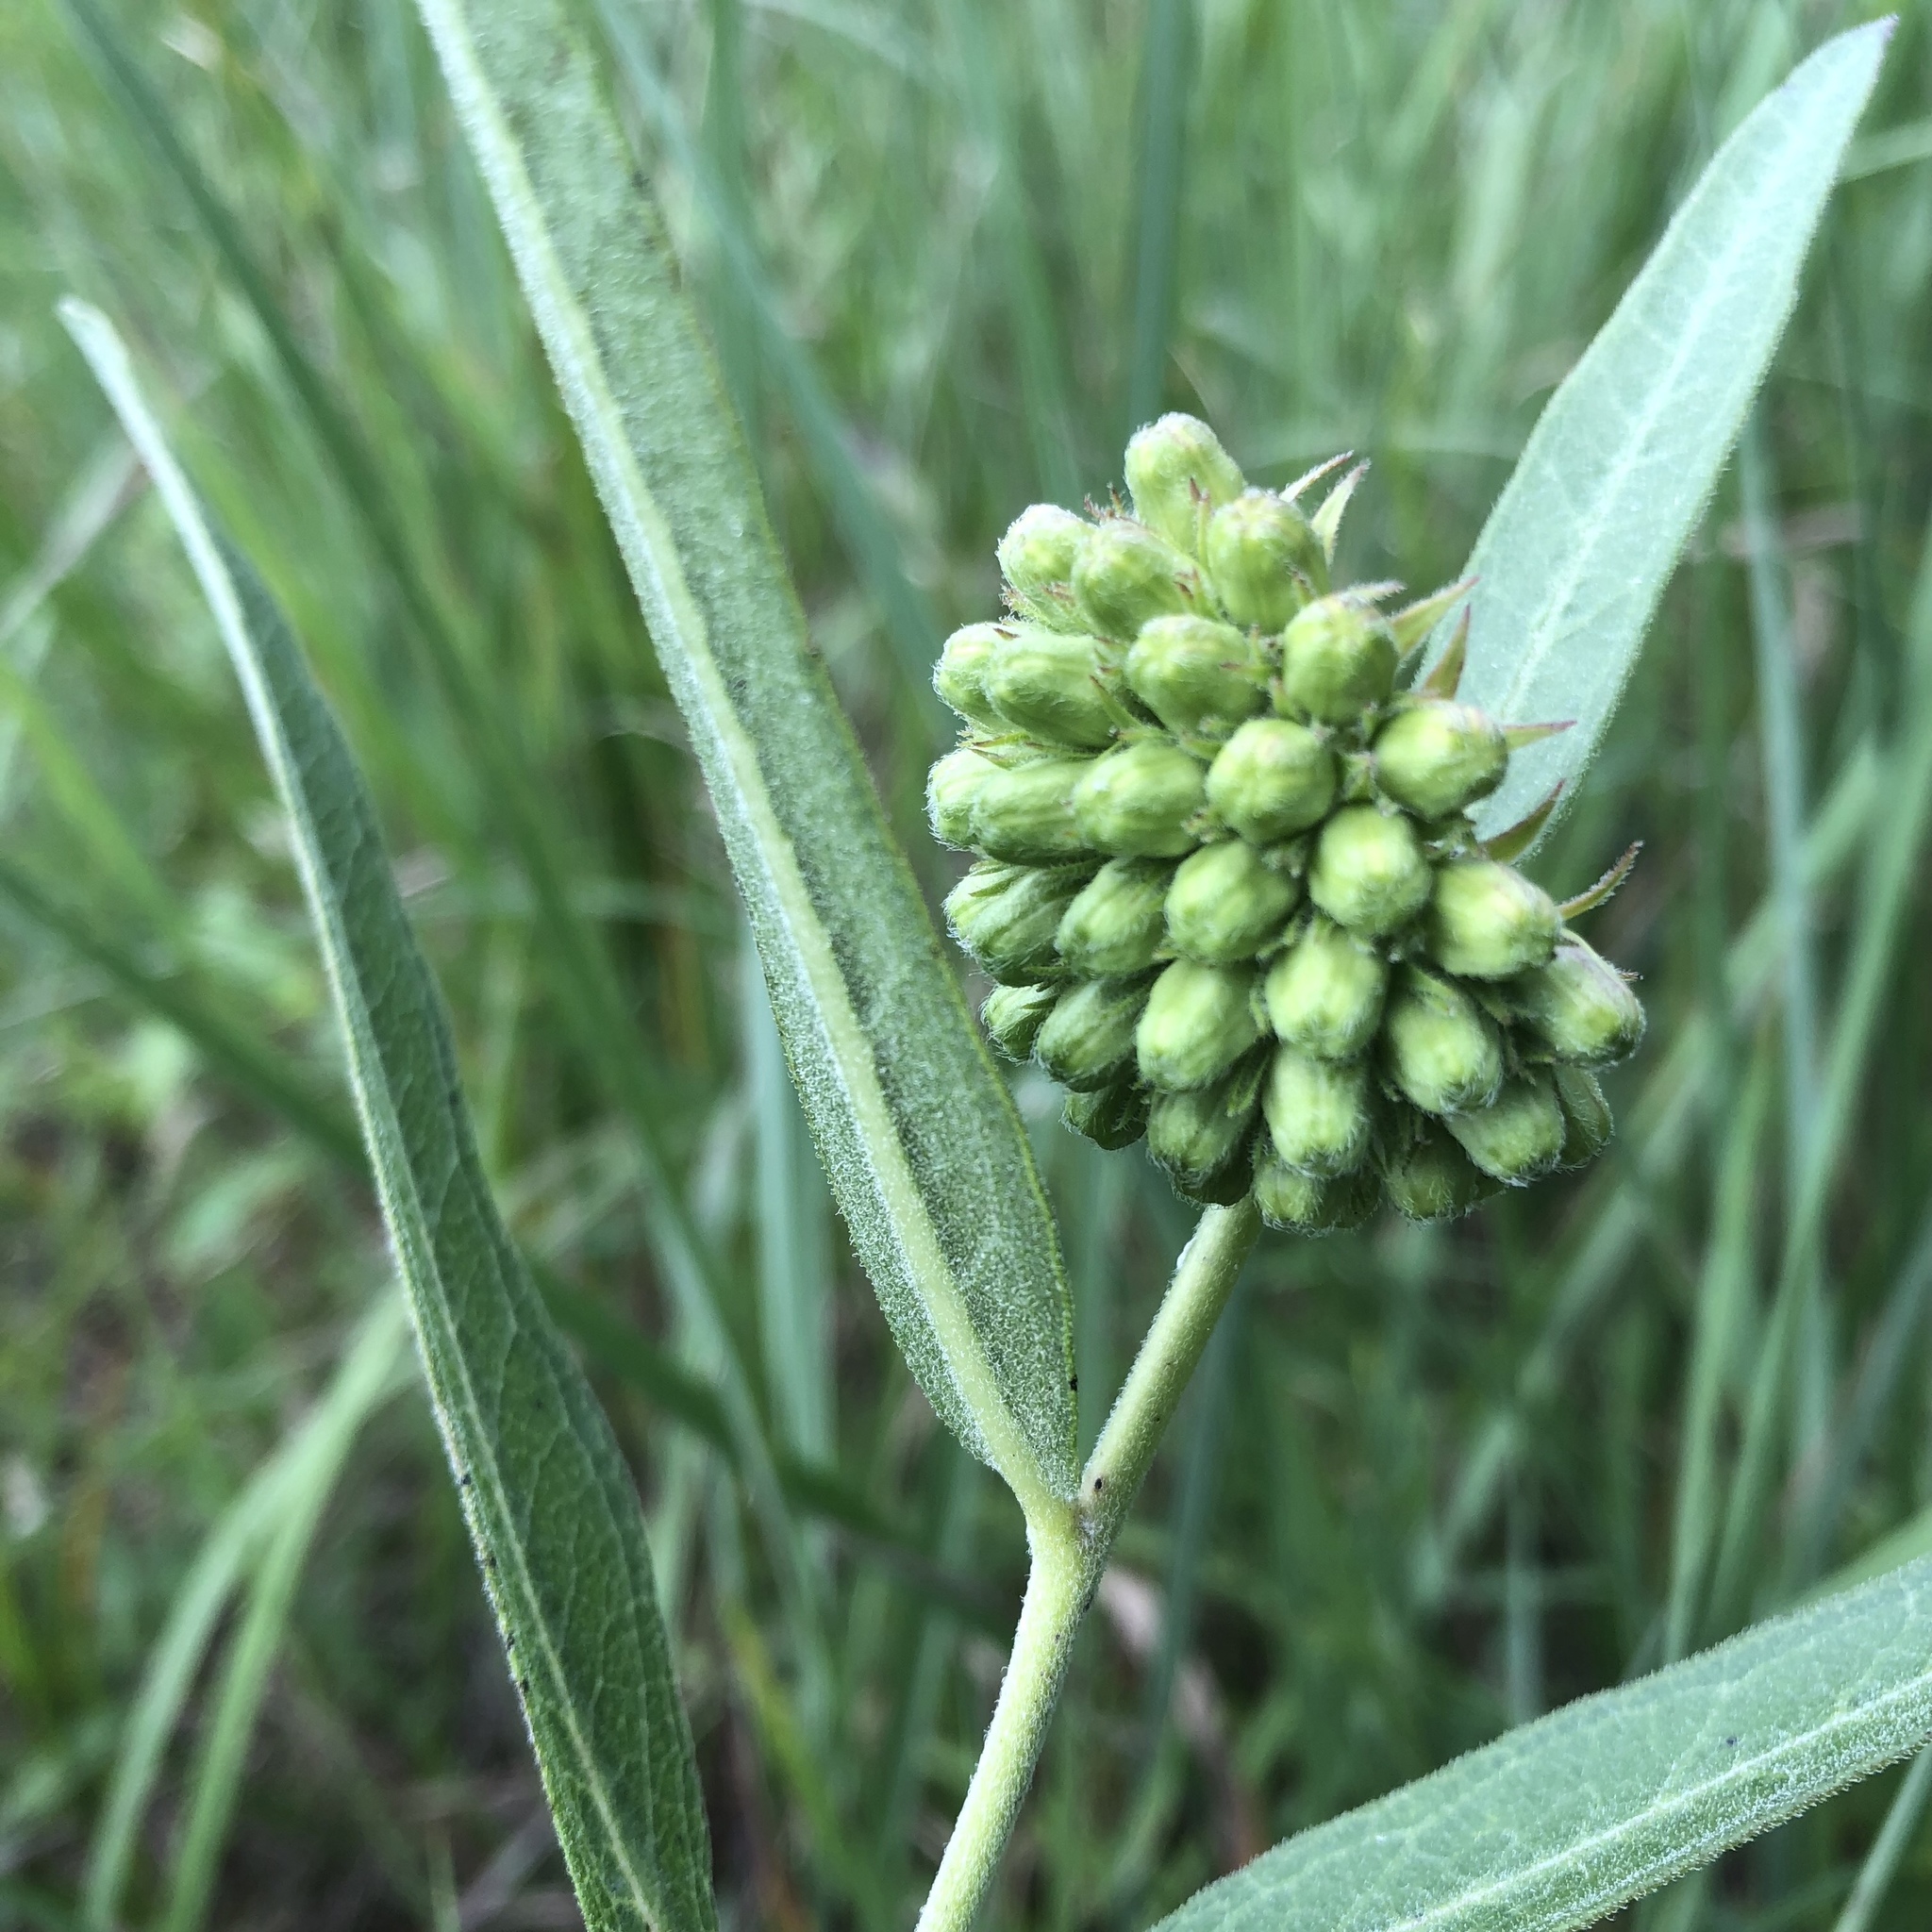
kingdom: Plantae
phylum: Tracheophyta
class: Magnoliopsida
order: Gentianales
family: Apocynaceae
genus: Asclepias
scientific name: Asclepias viridiflora
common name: Green comet milkweed
